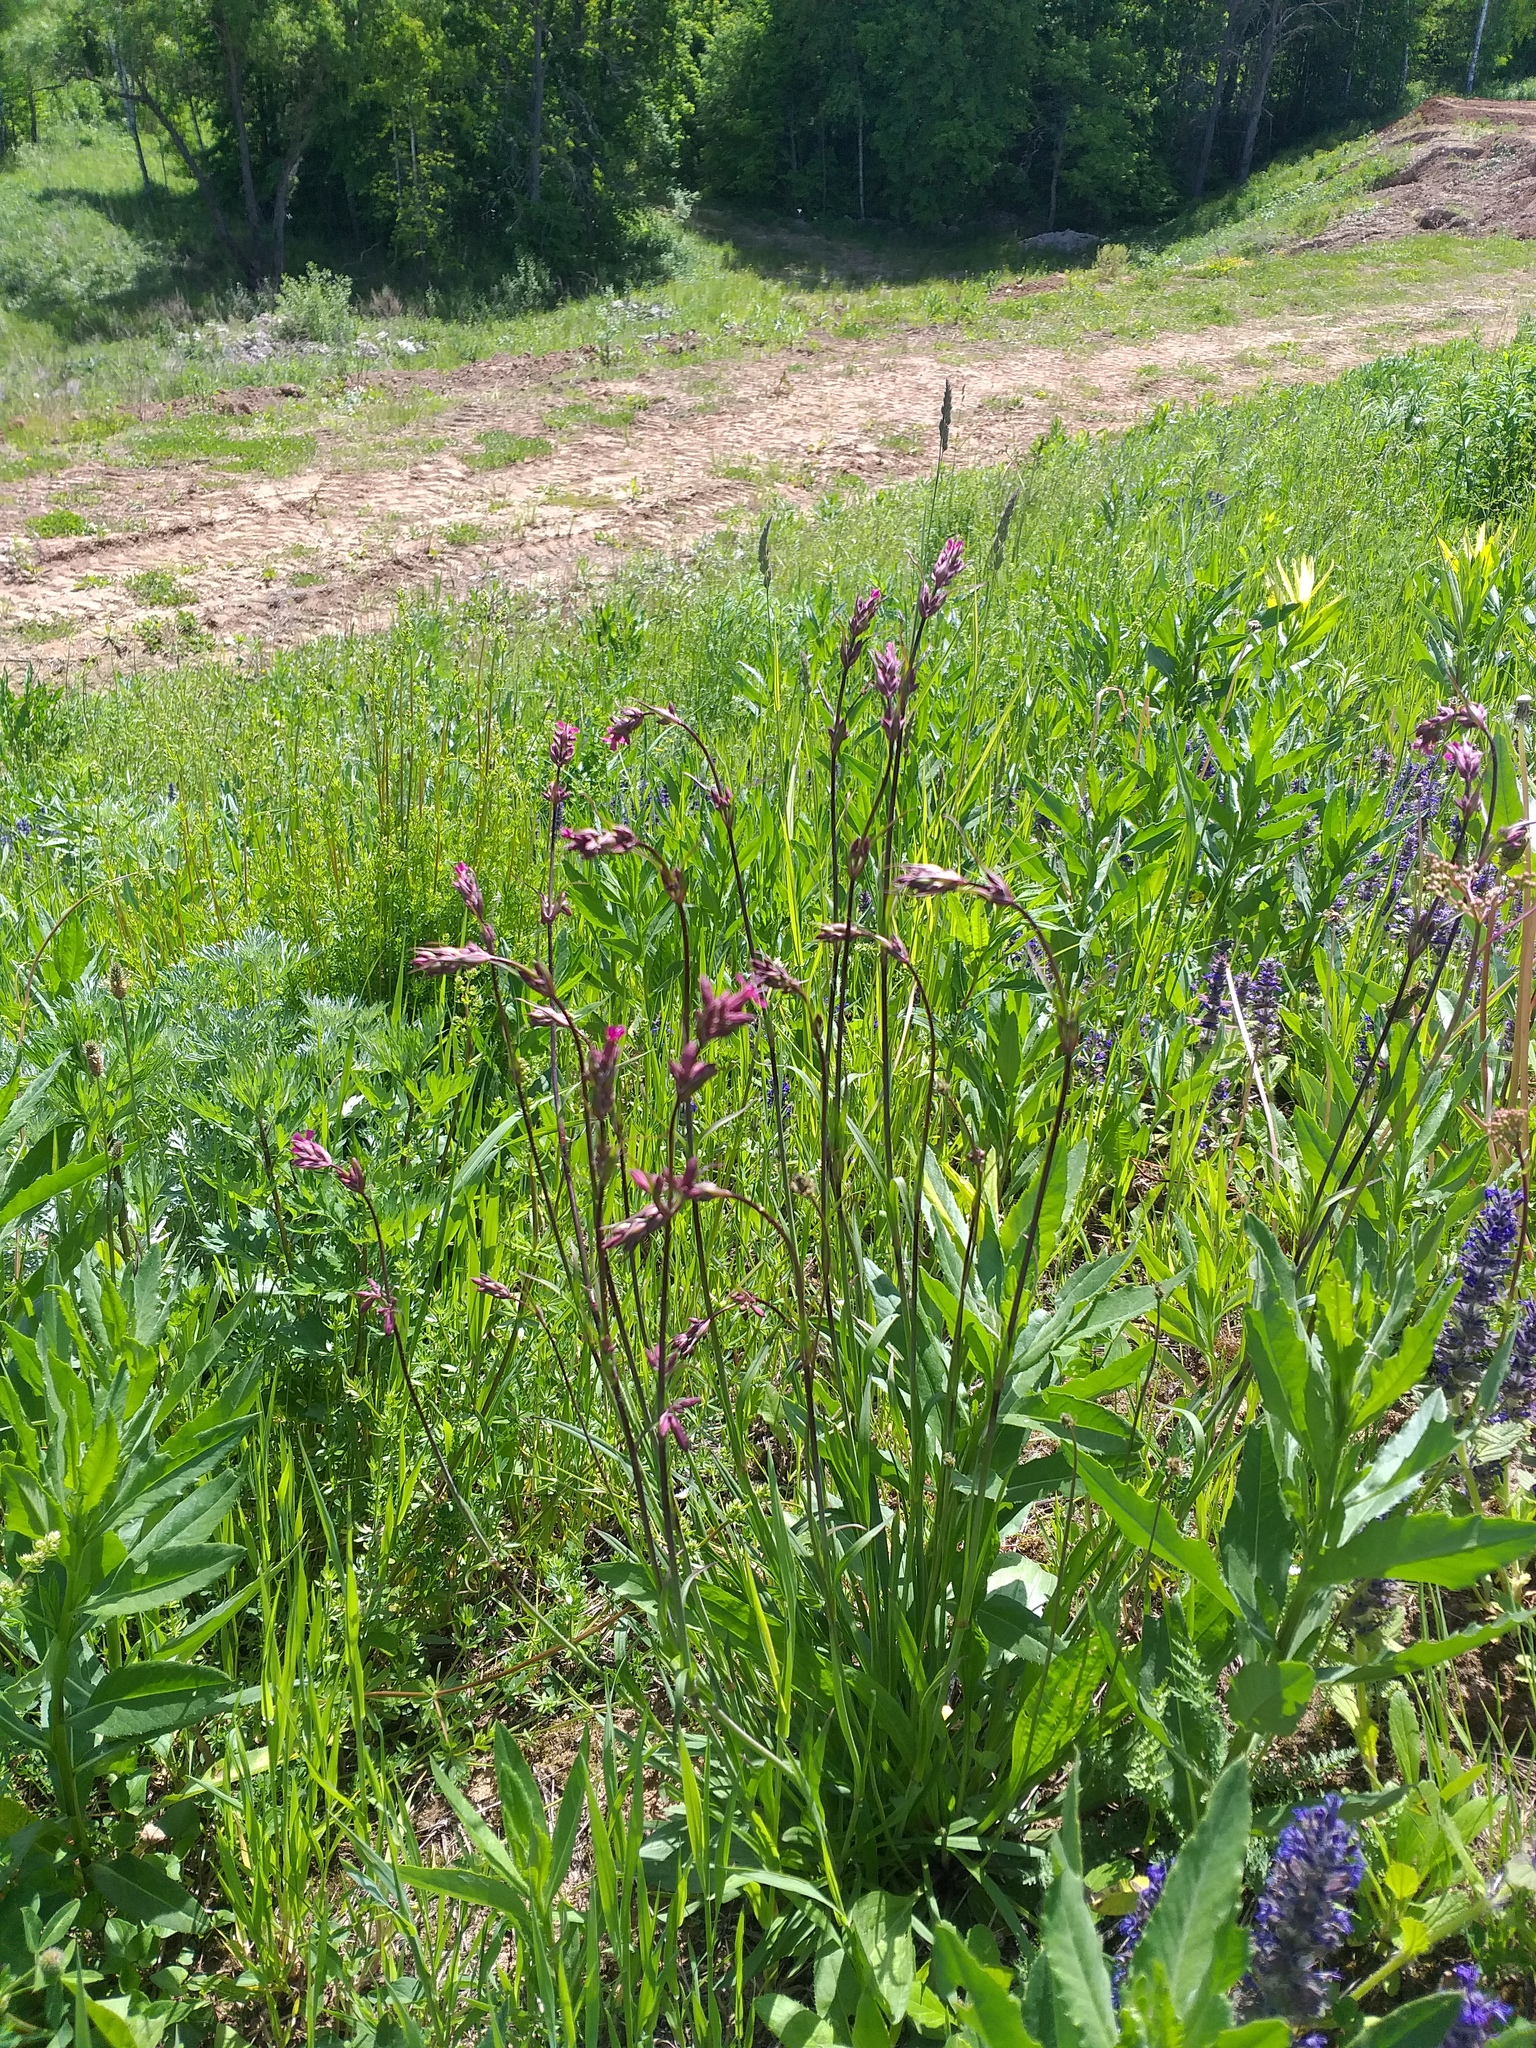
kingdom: Plantae
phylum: Tracheophyta
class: Magnoliopsida
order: Caryophyllales
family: Caryophyllaceae
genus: Viscaria
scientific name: Viscaria vulgaris
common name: Clammy campion
